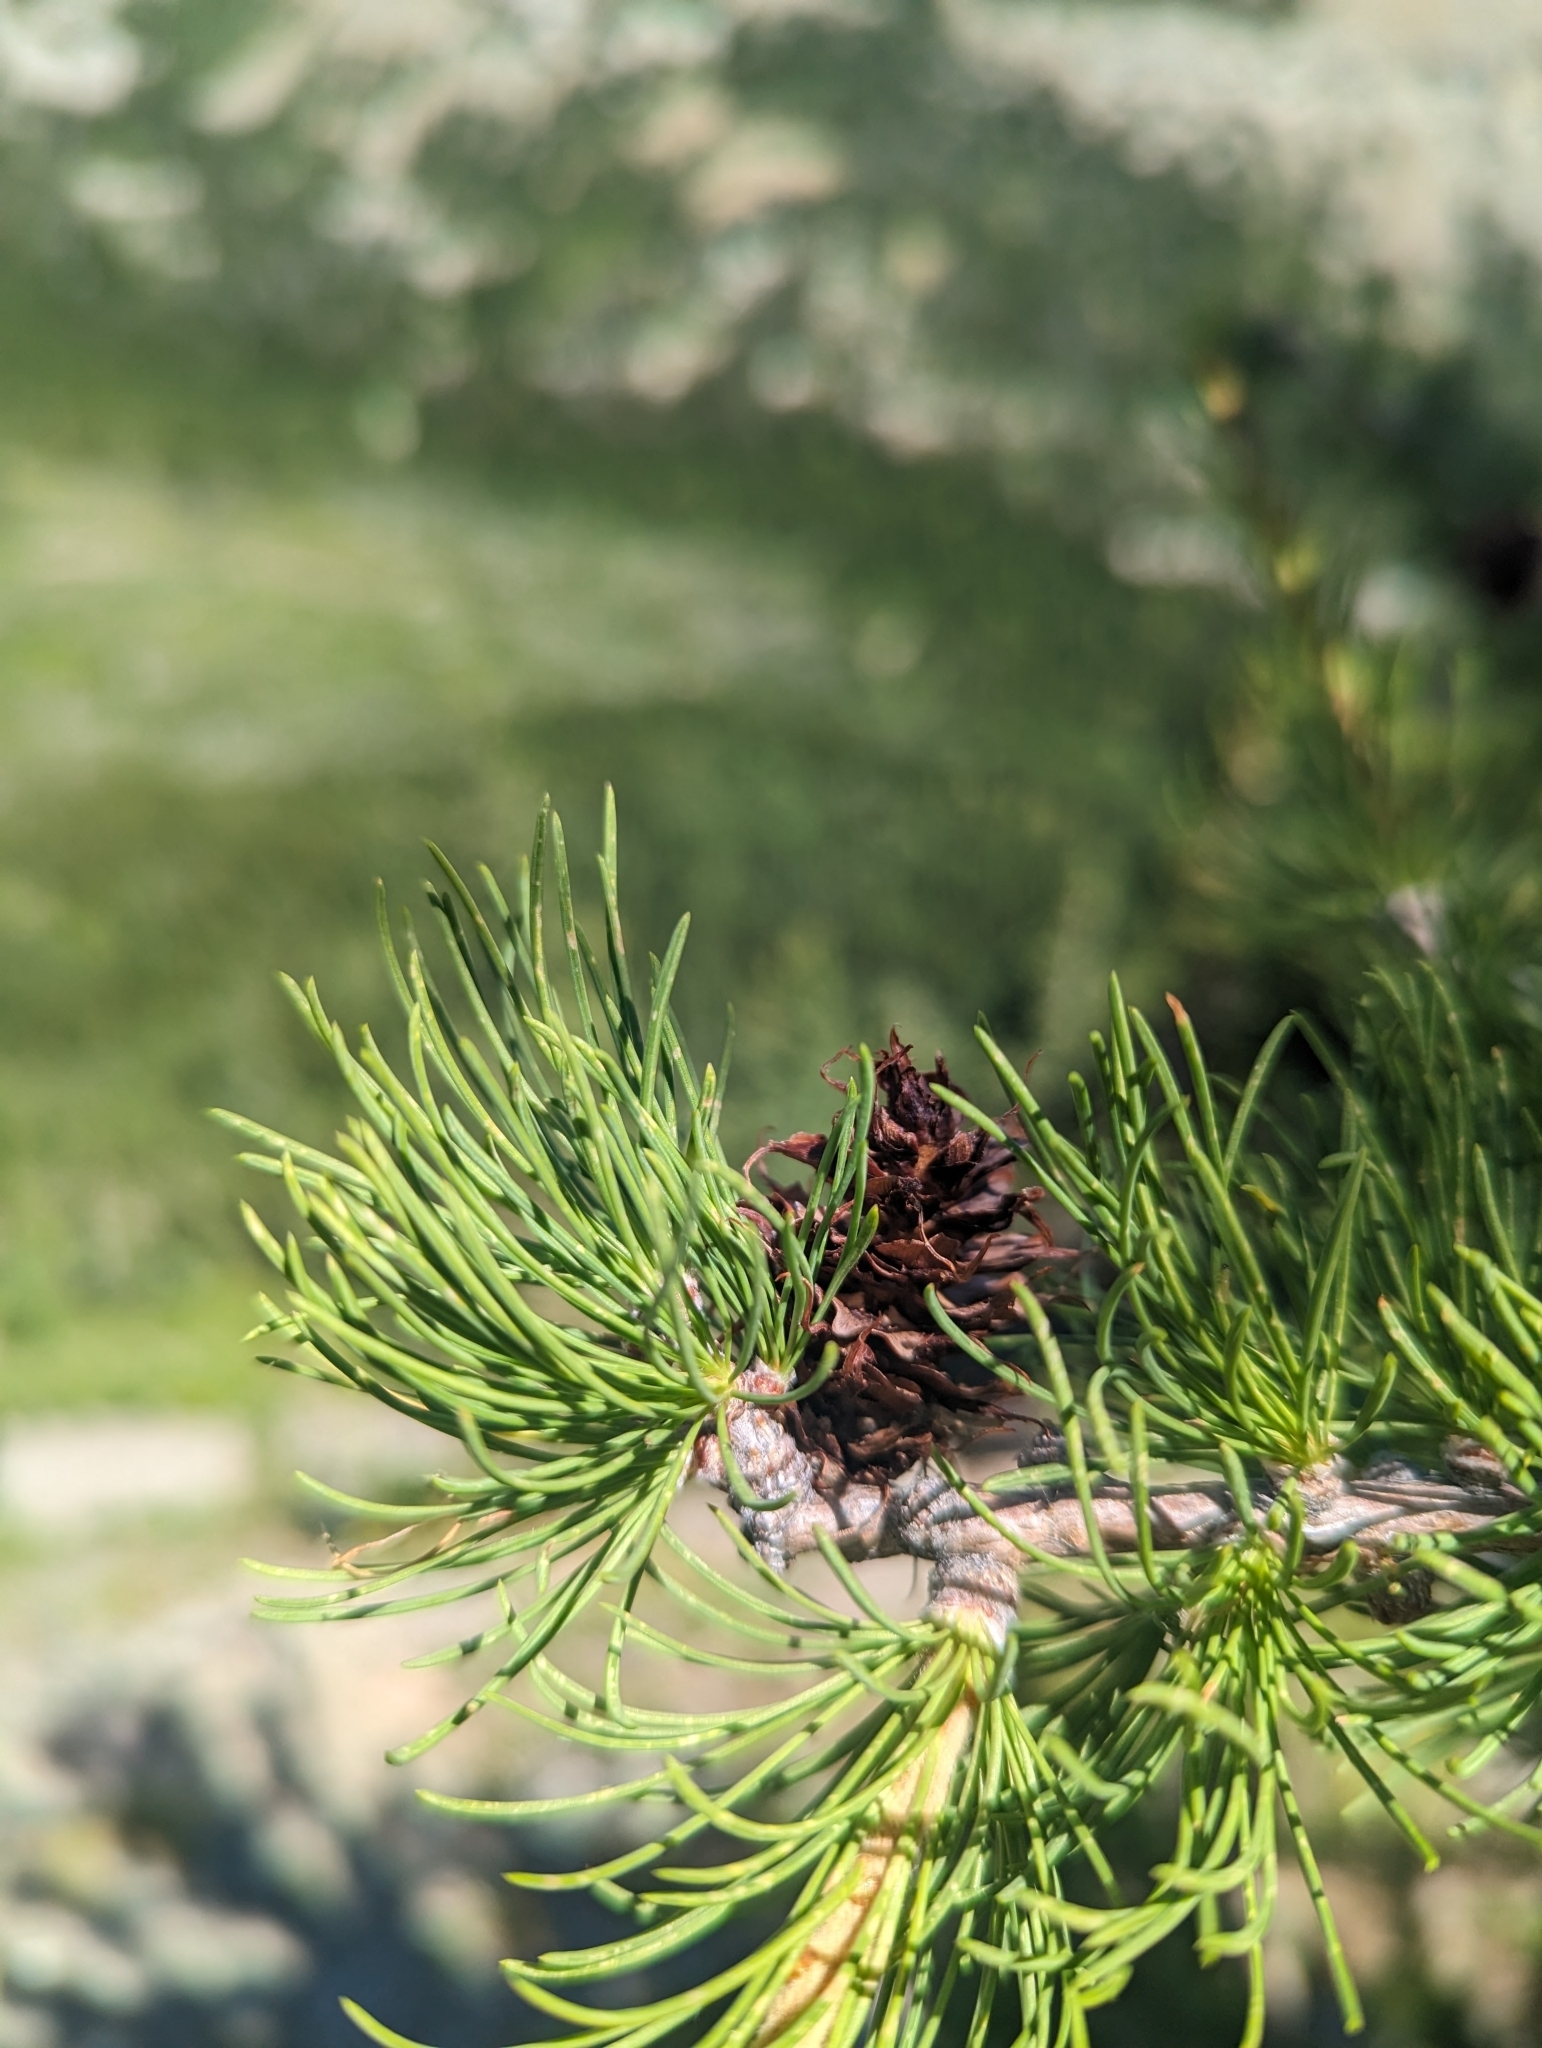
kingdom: Plantae
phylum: Tracheophyta
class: Pinopsida
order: Pinales
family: Pinaceae
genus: Larix
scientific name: Larix lyallii
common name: Alpine larch
